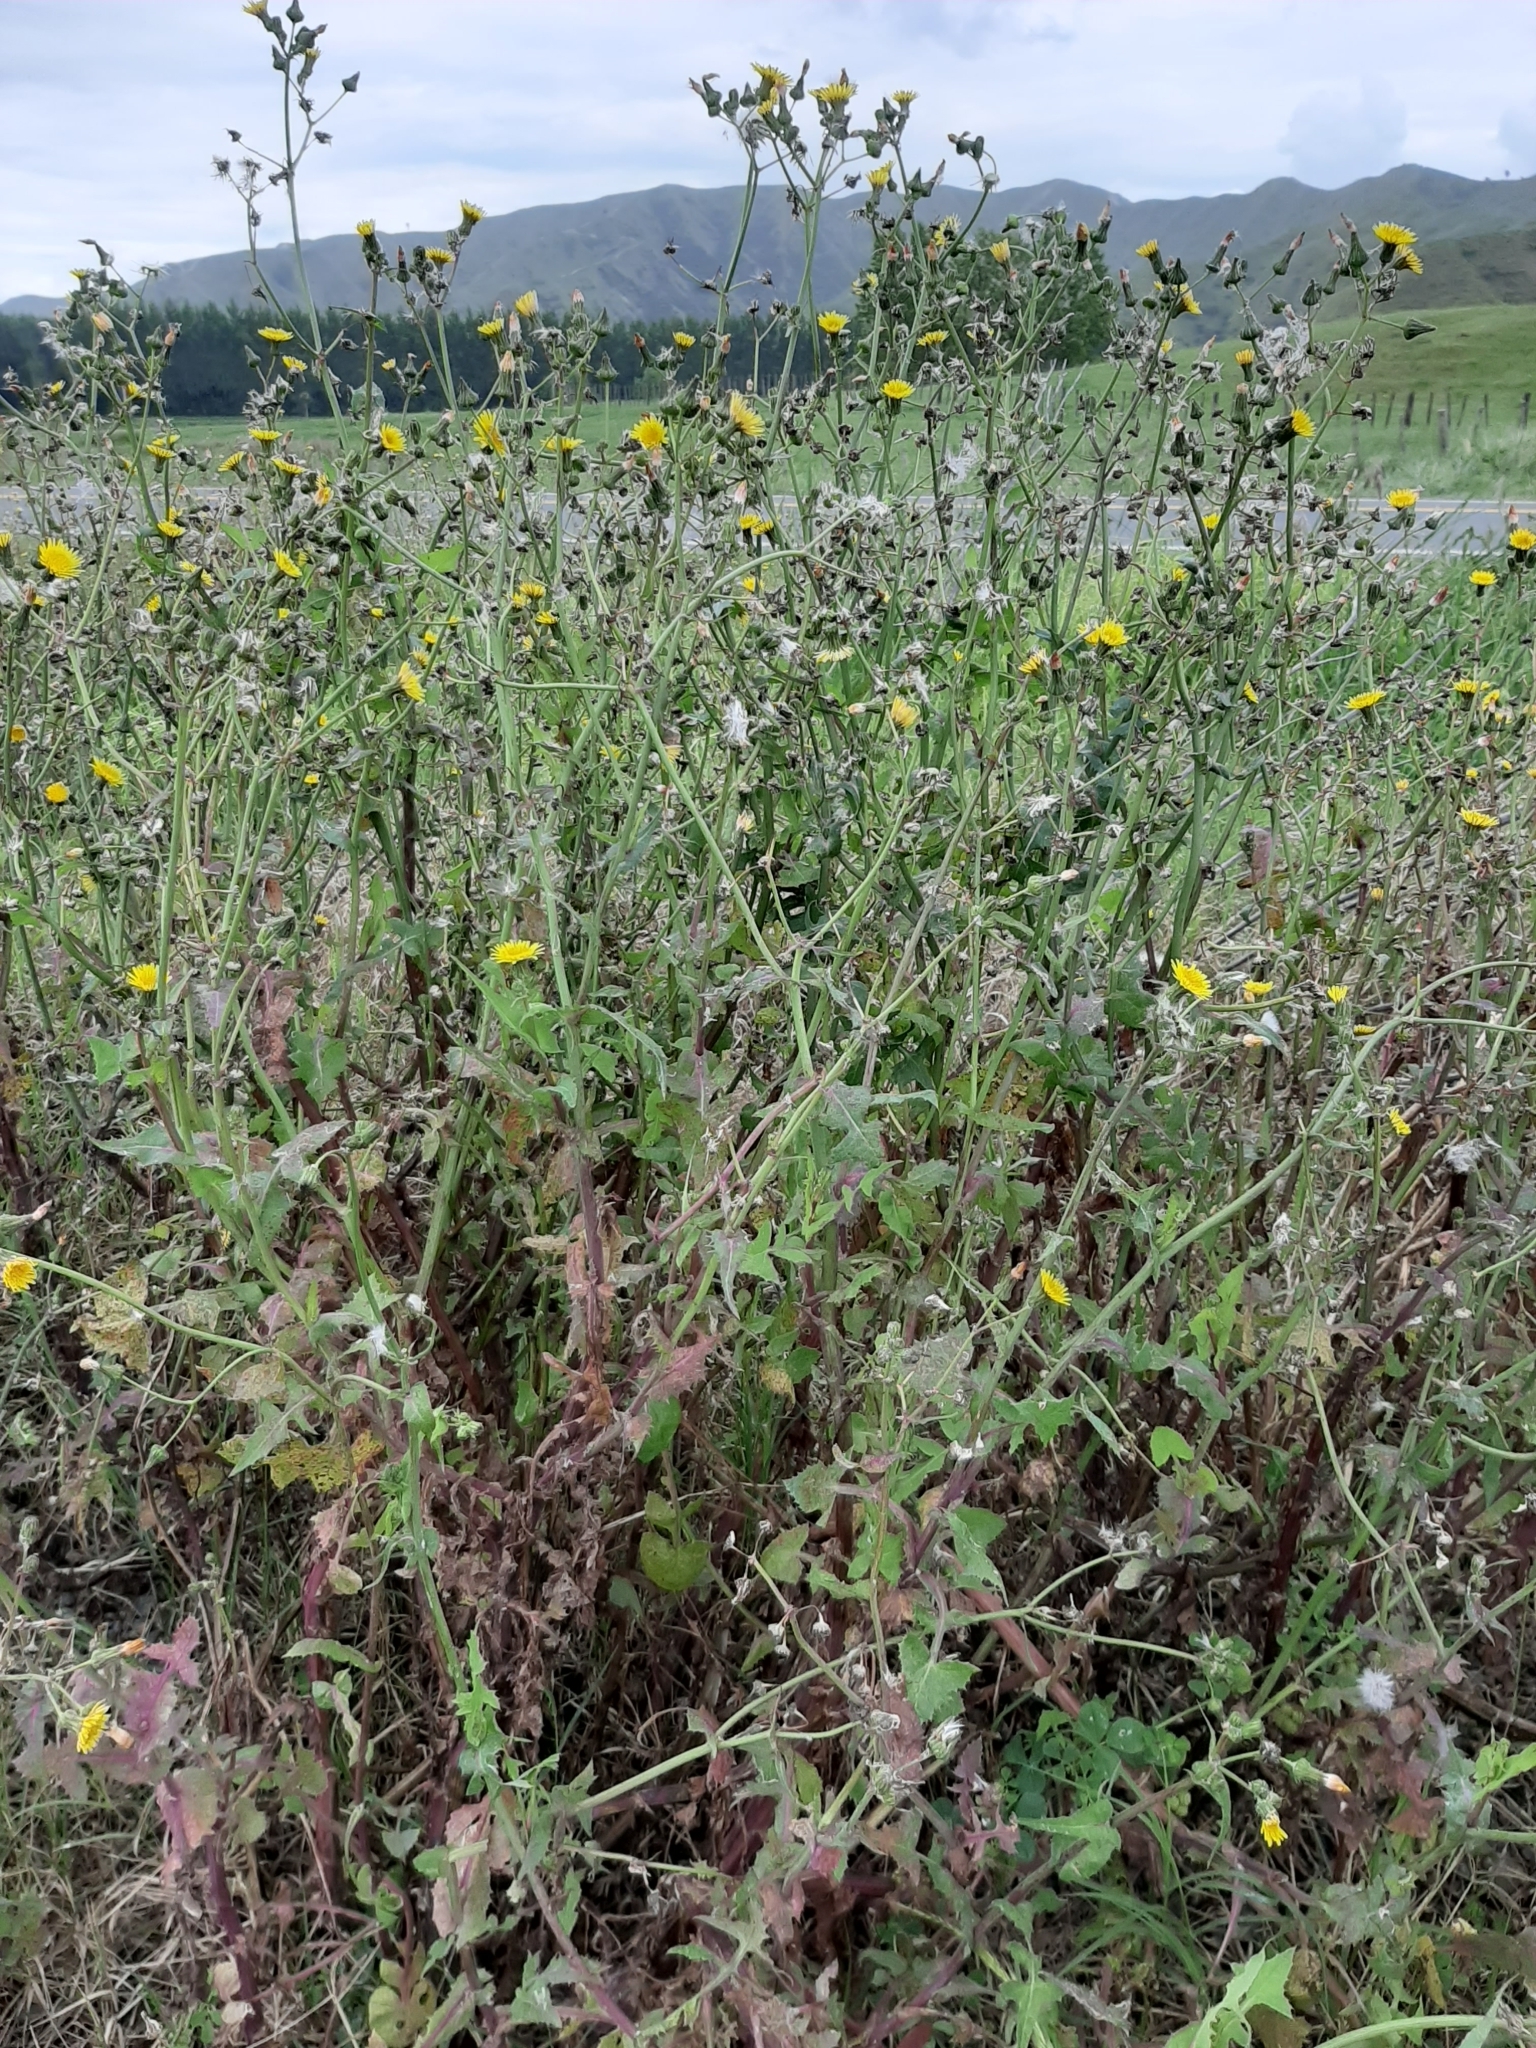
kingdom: Plantae
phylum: Tracheophyta
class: Magnoliopsida
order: Asterales
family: Asteraceae
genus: Sonchus
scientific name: Sonchus oleraceus
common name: Common sowthistle
